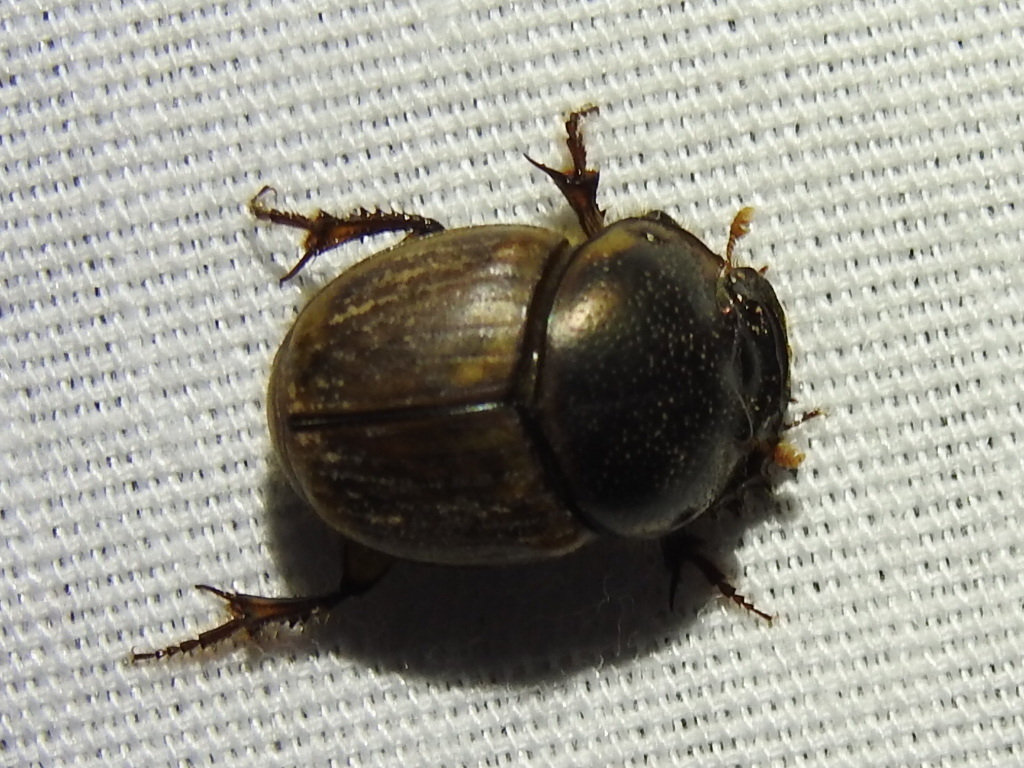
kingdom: Animalia
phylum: Arthropoda
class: Insecta
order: Coleoptera
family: Scarabaeidae
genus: Digitonthophagus
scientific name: Digitonthophagus gazella
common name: Brown dung beetle
